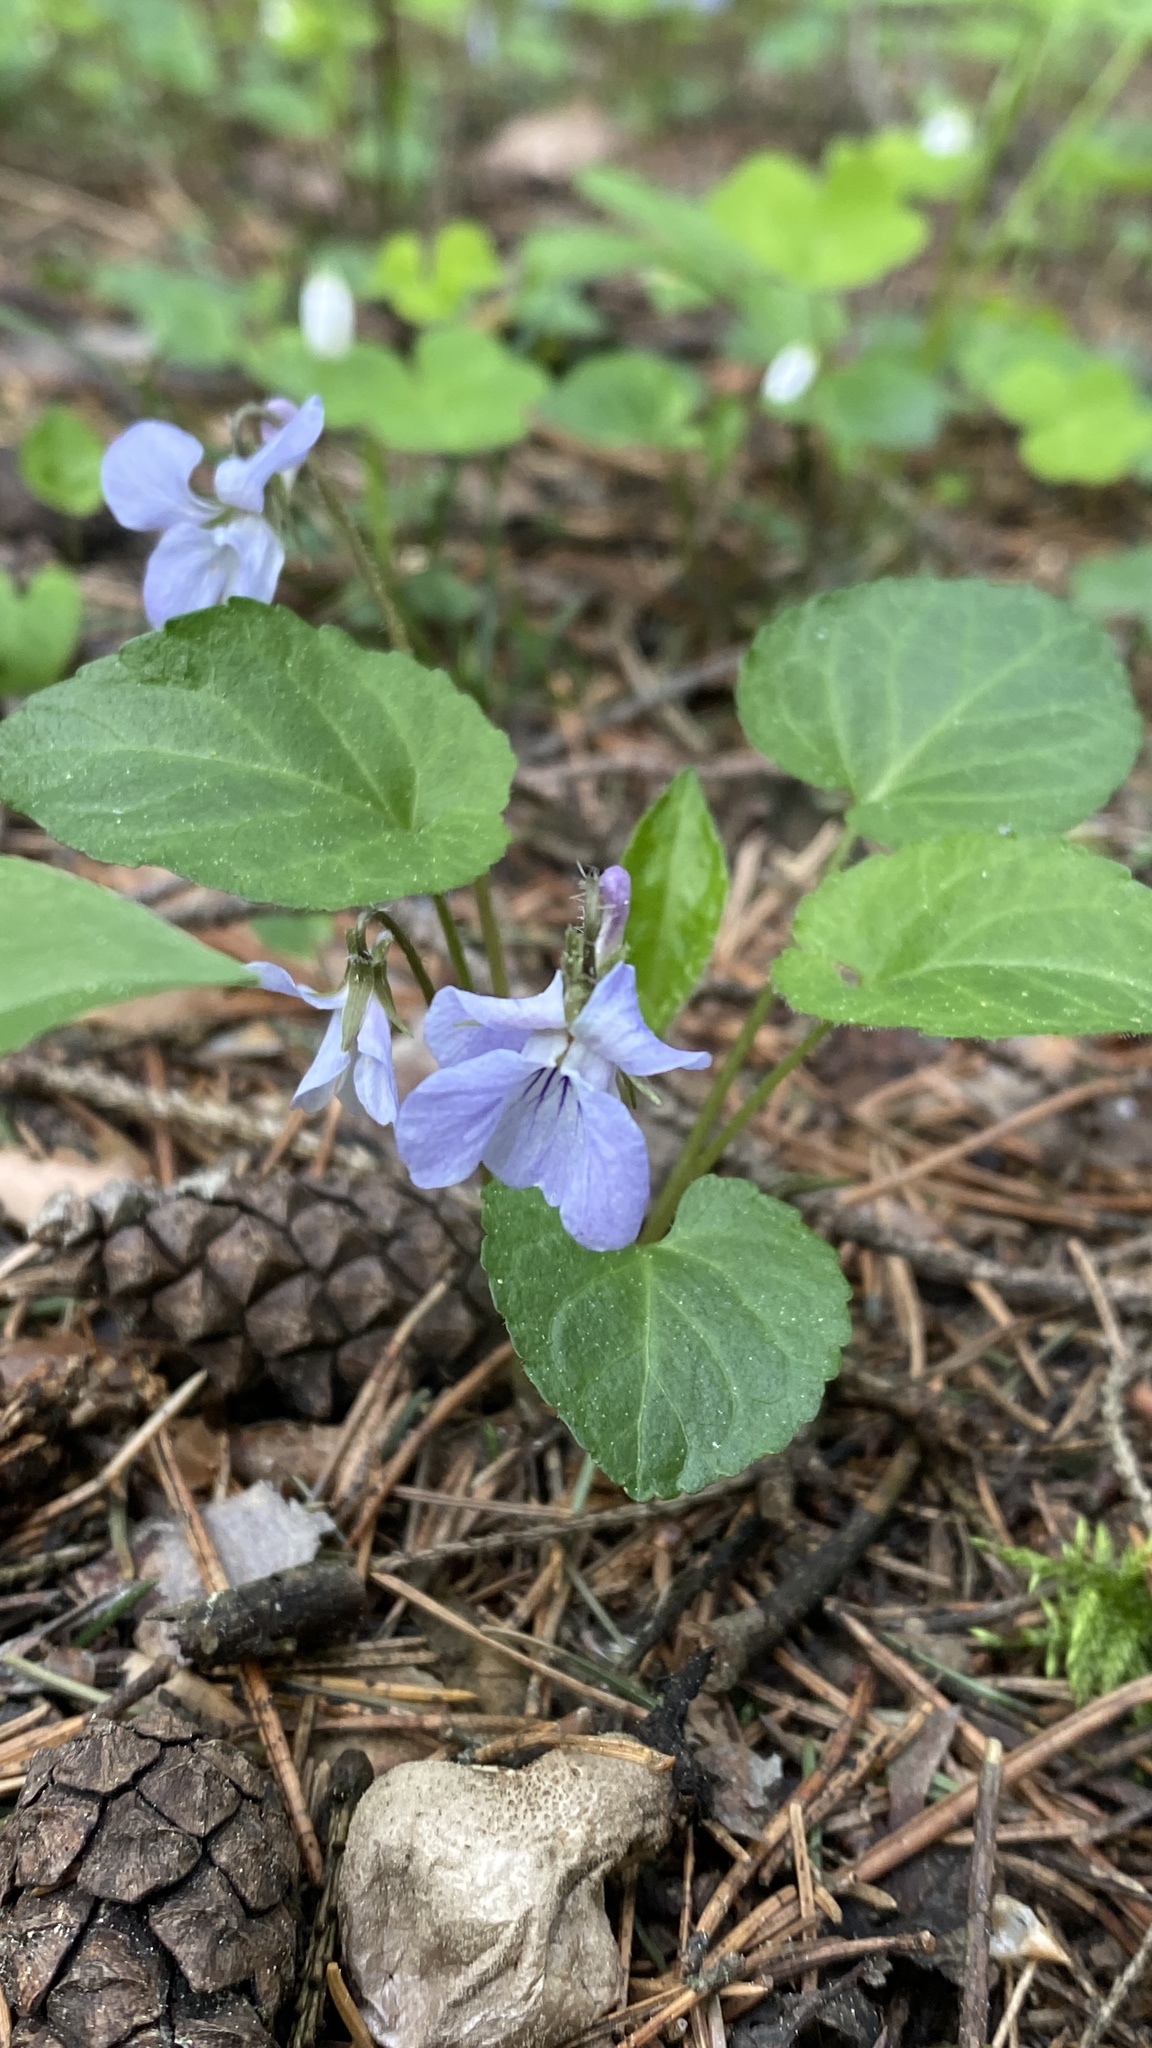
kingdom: Plantae
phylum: Tracheophyta
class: Magnoliopsida
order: Malpighiales
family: Violaceae
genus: Viola
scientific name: Viola selkirkii
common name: Selkirk's violet
